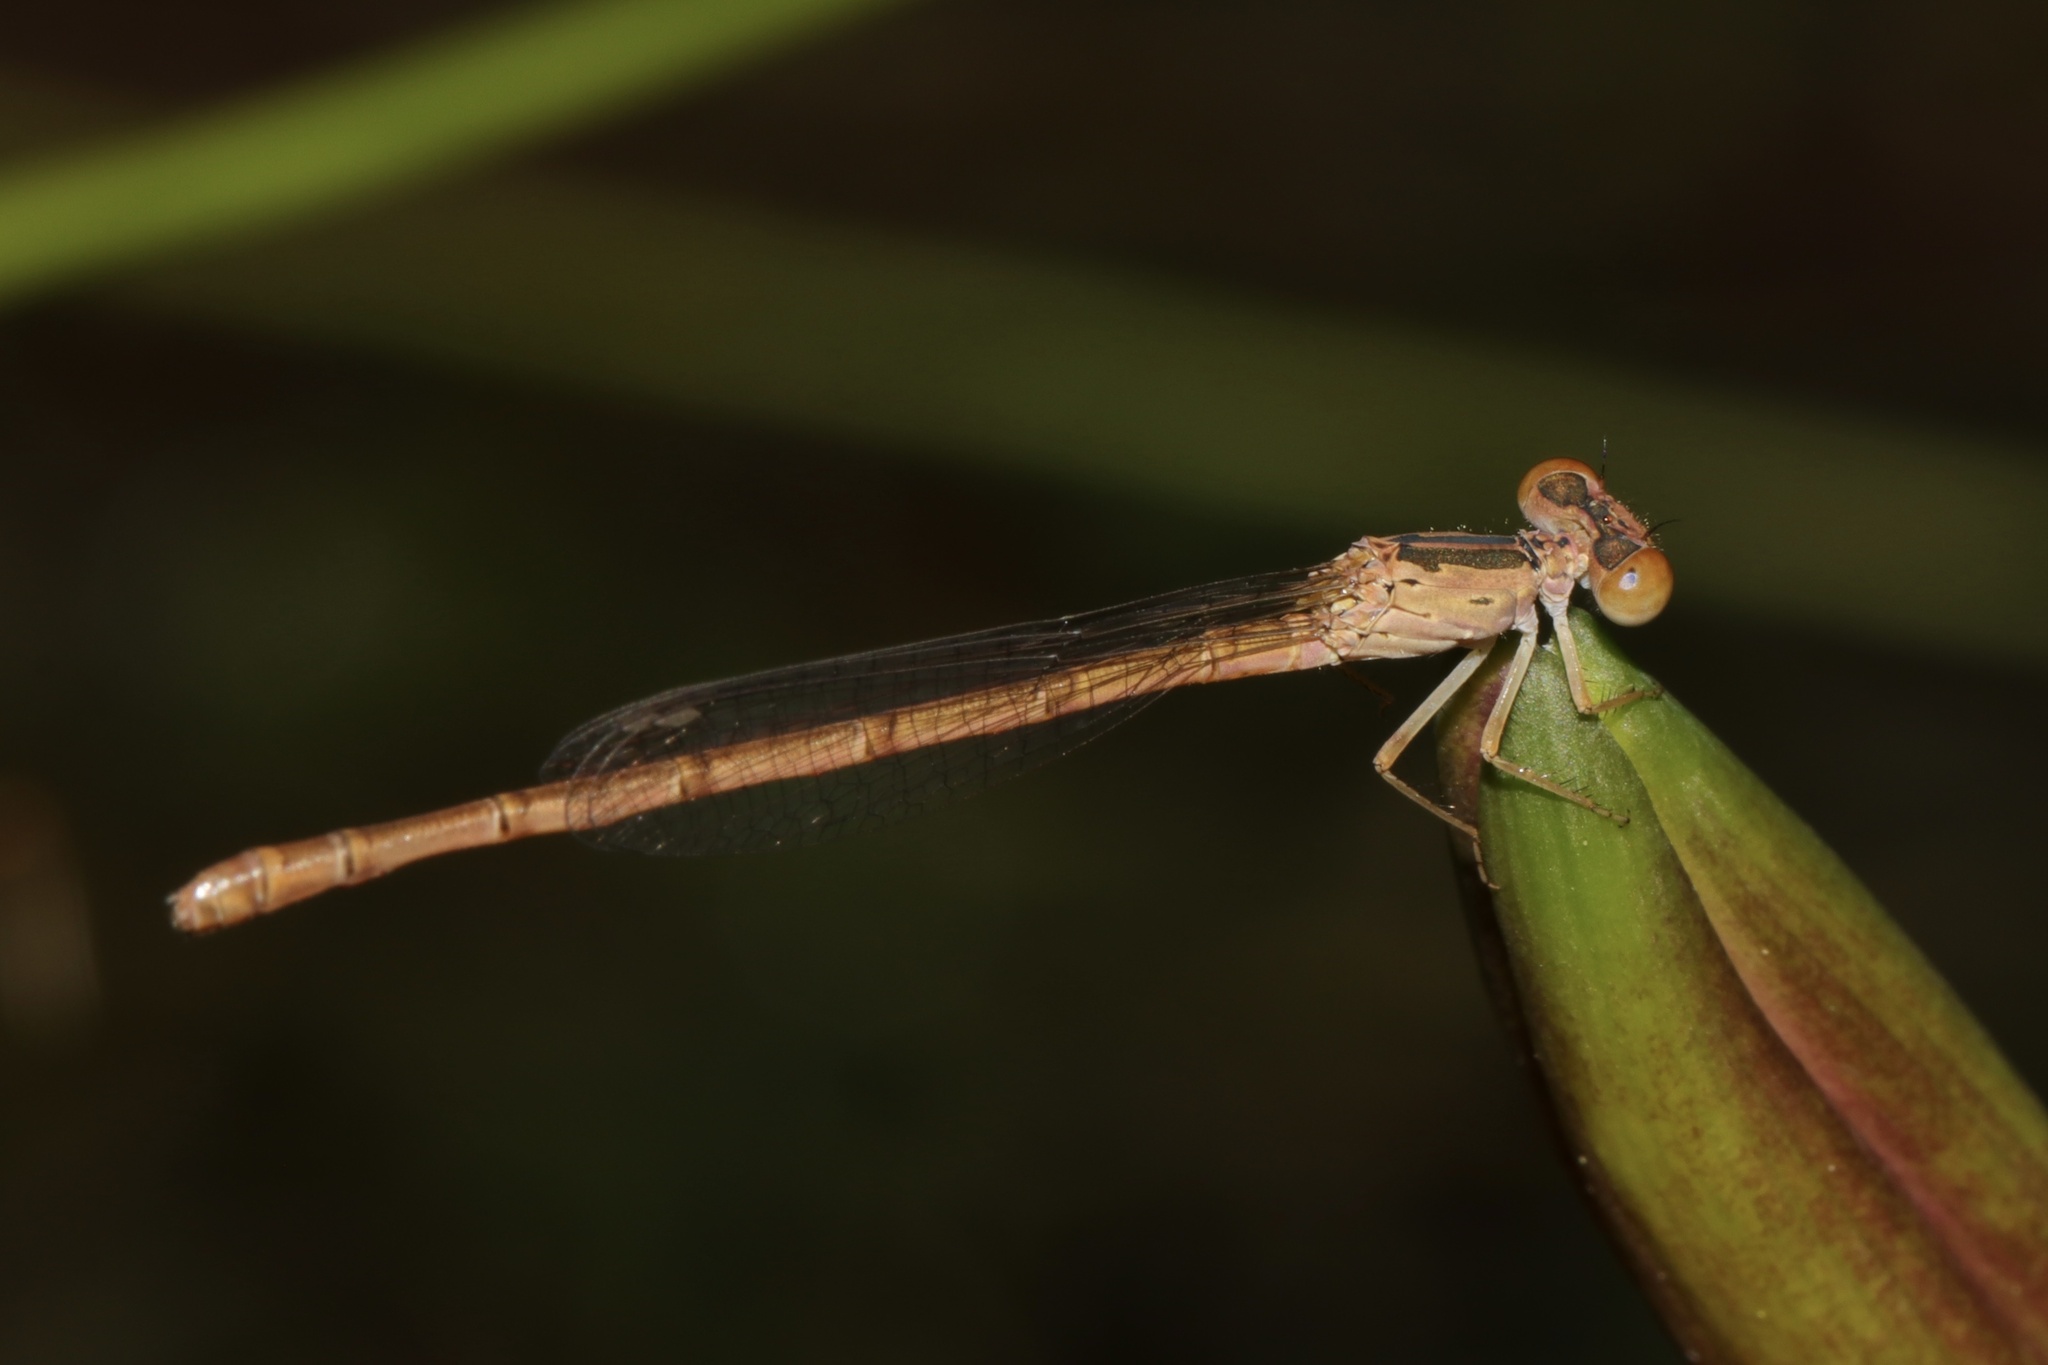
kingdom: Animalia
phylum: Arthropoda
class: Insecta
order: Odonata
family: Coenagrionidae
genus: Telebasis
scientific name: Telebasis salva
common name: Desert firetail
